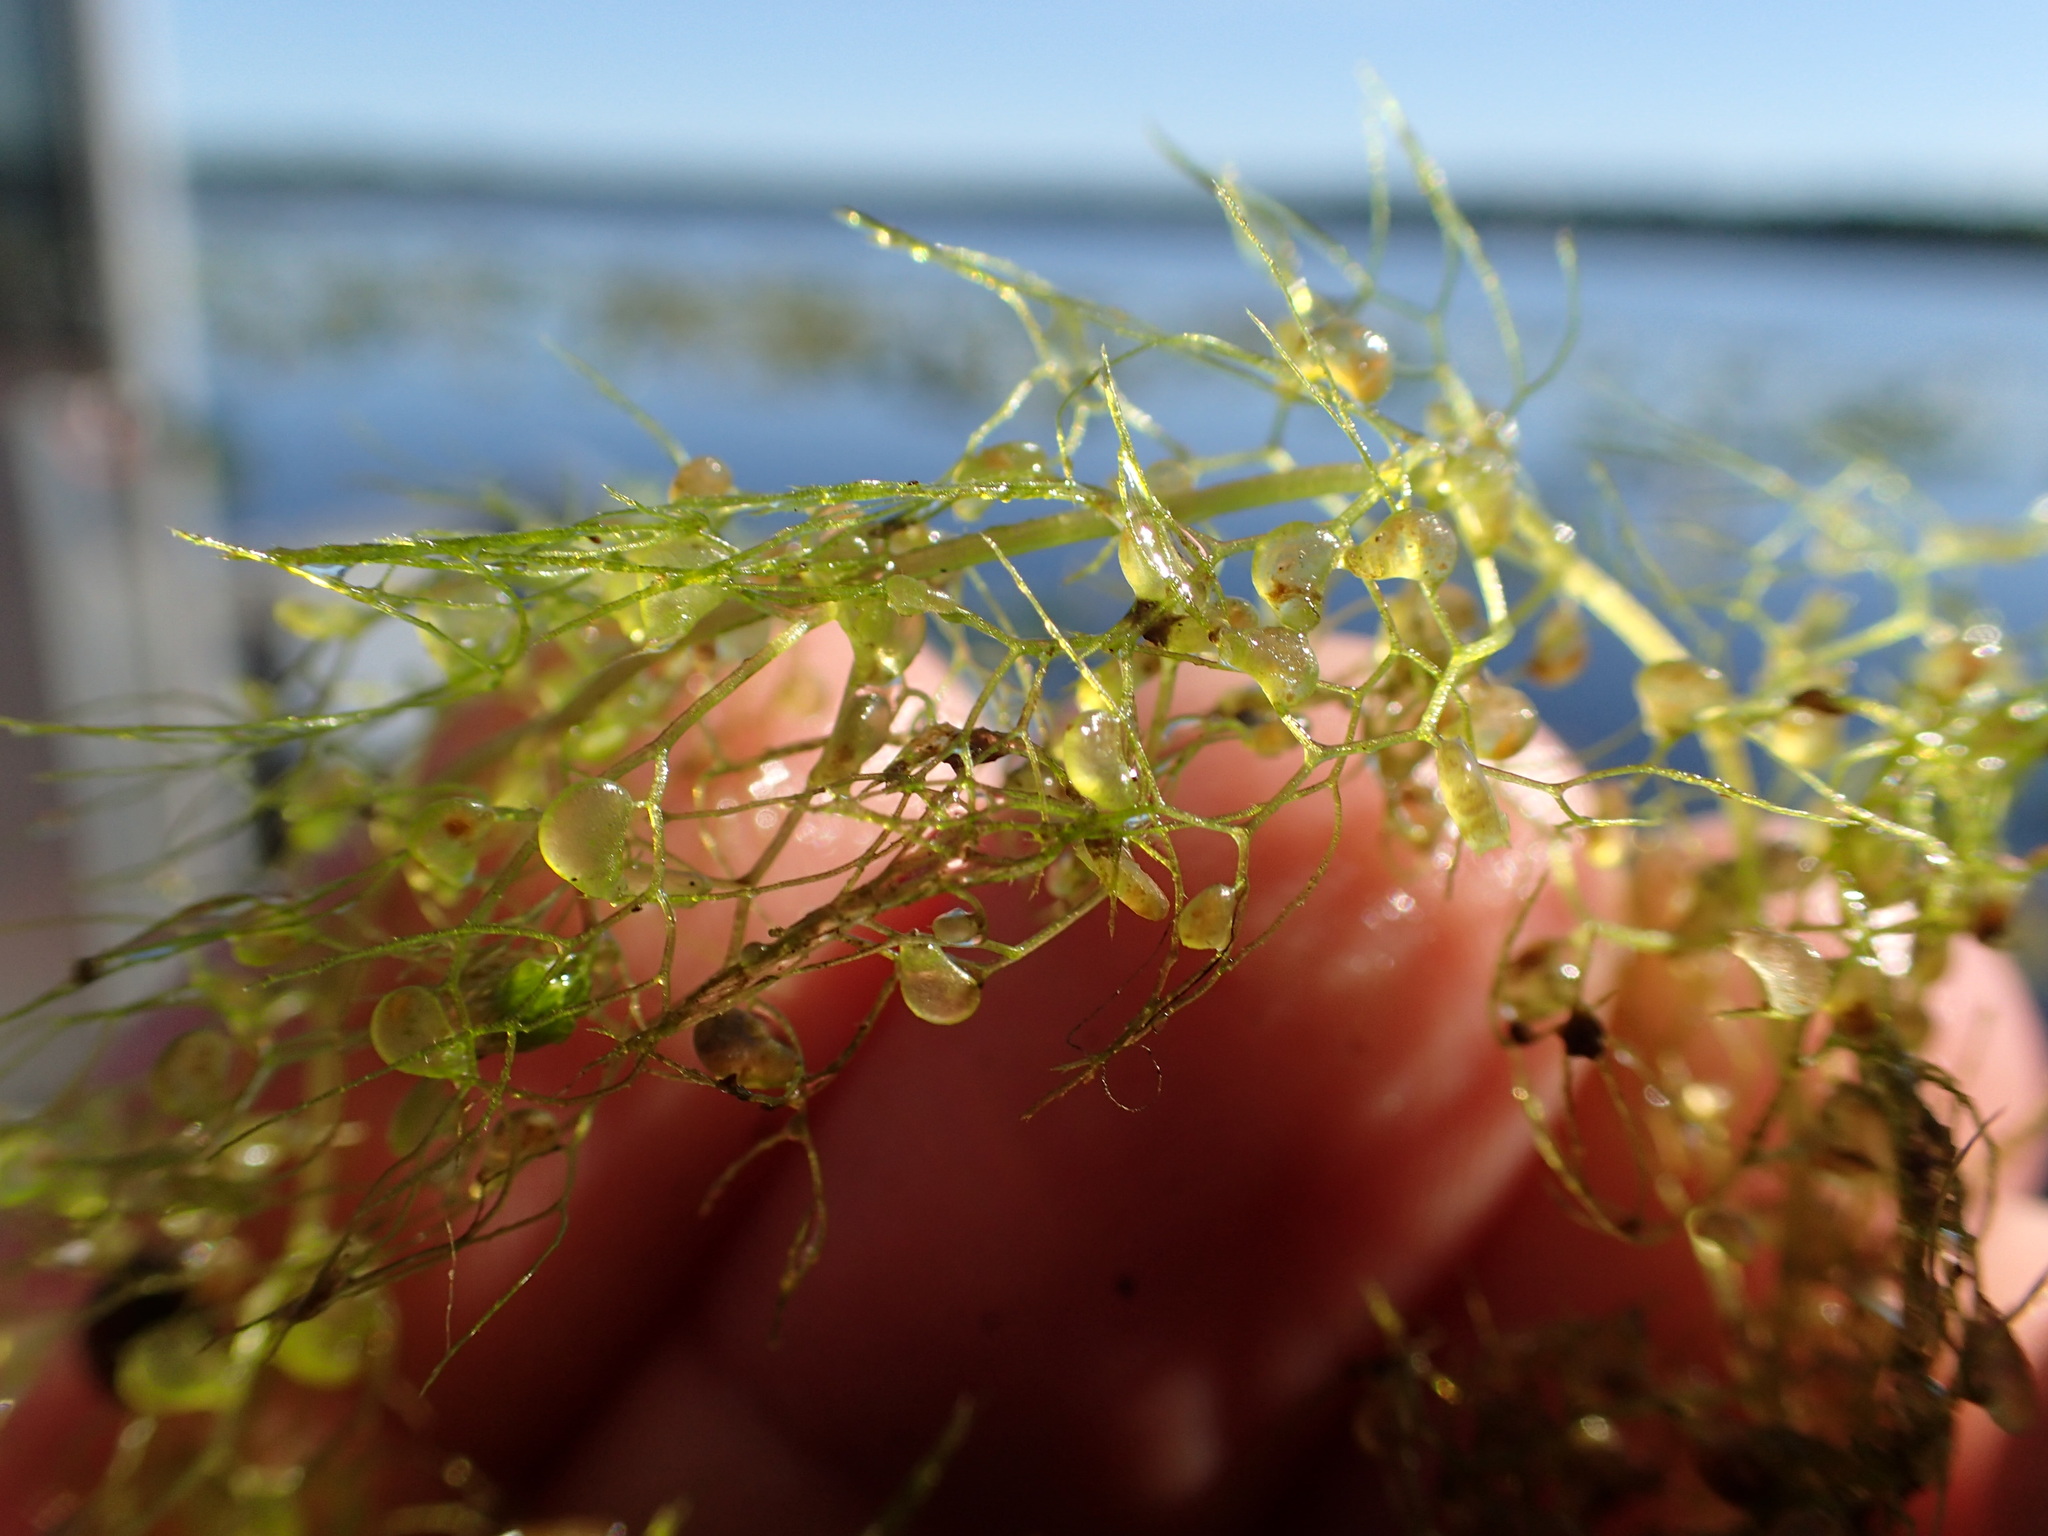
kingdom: Plantae
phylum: Tracheophyta
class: Magnoliopsida
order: Lamiales
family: Lentibulariaceae
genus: Utricularia
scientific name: Utricularia macrorhiza
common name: Common bladderwort
